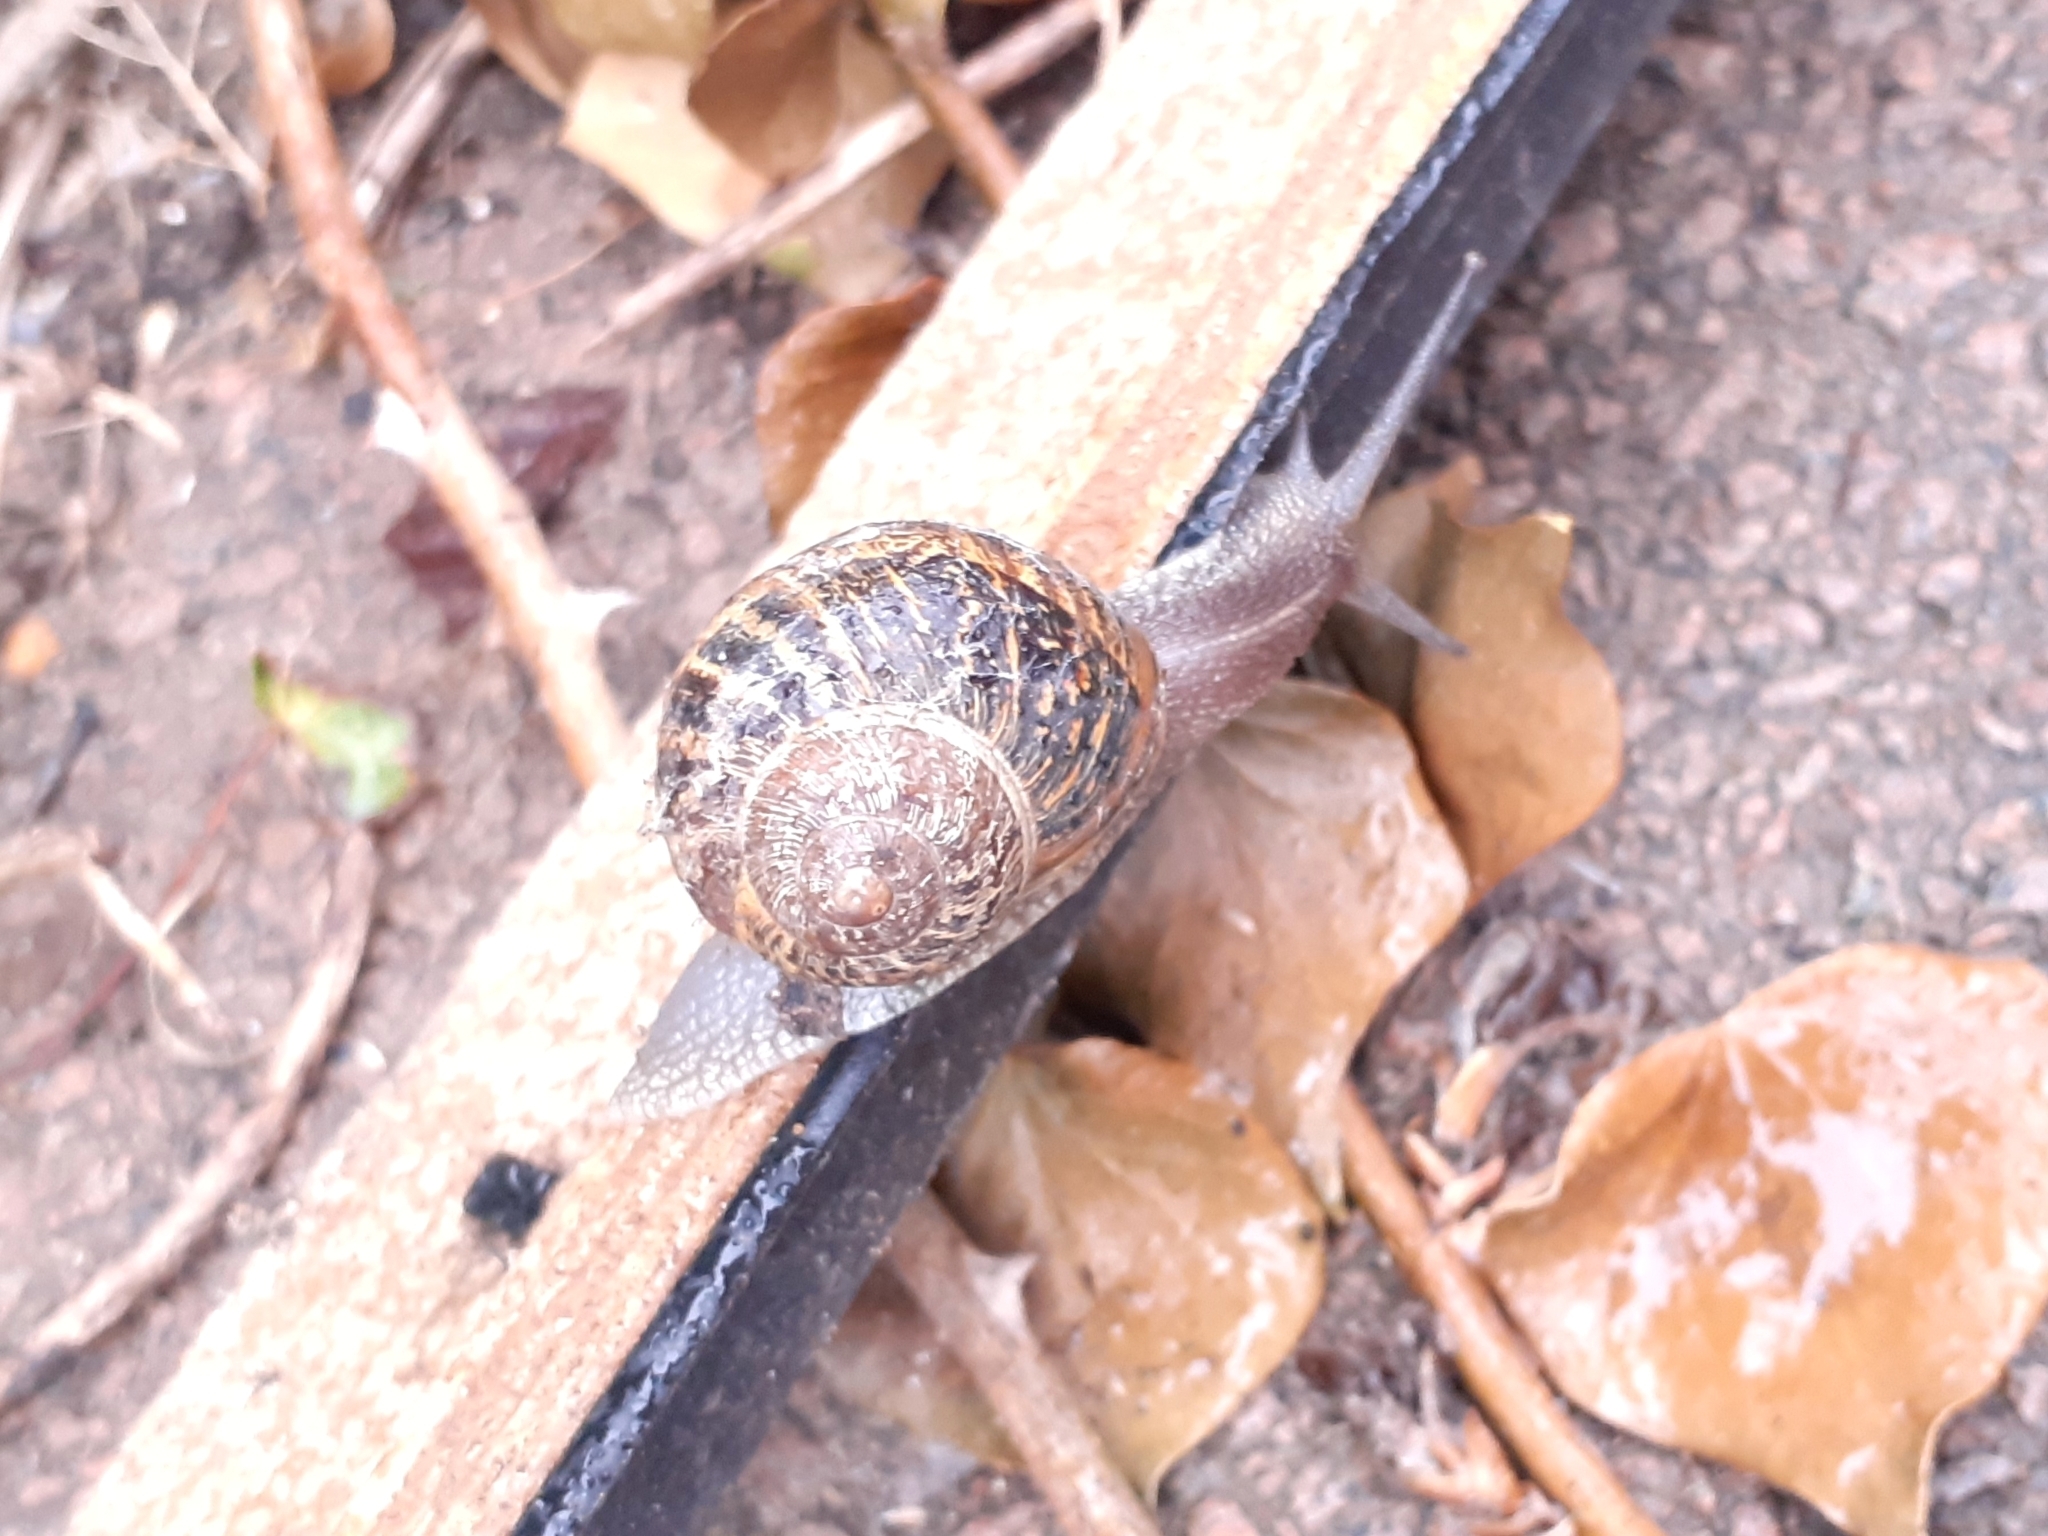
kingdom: Animalia
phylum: Mollusca
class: Gastropoda
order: Stylommatophora
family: Helicidae
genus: Cornu
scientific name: Cornu aspersum
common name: Brown garden snail
